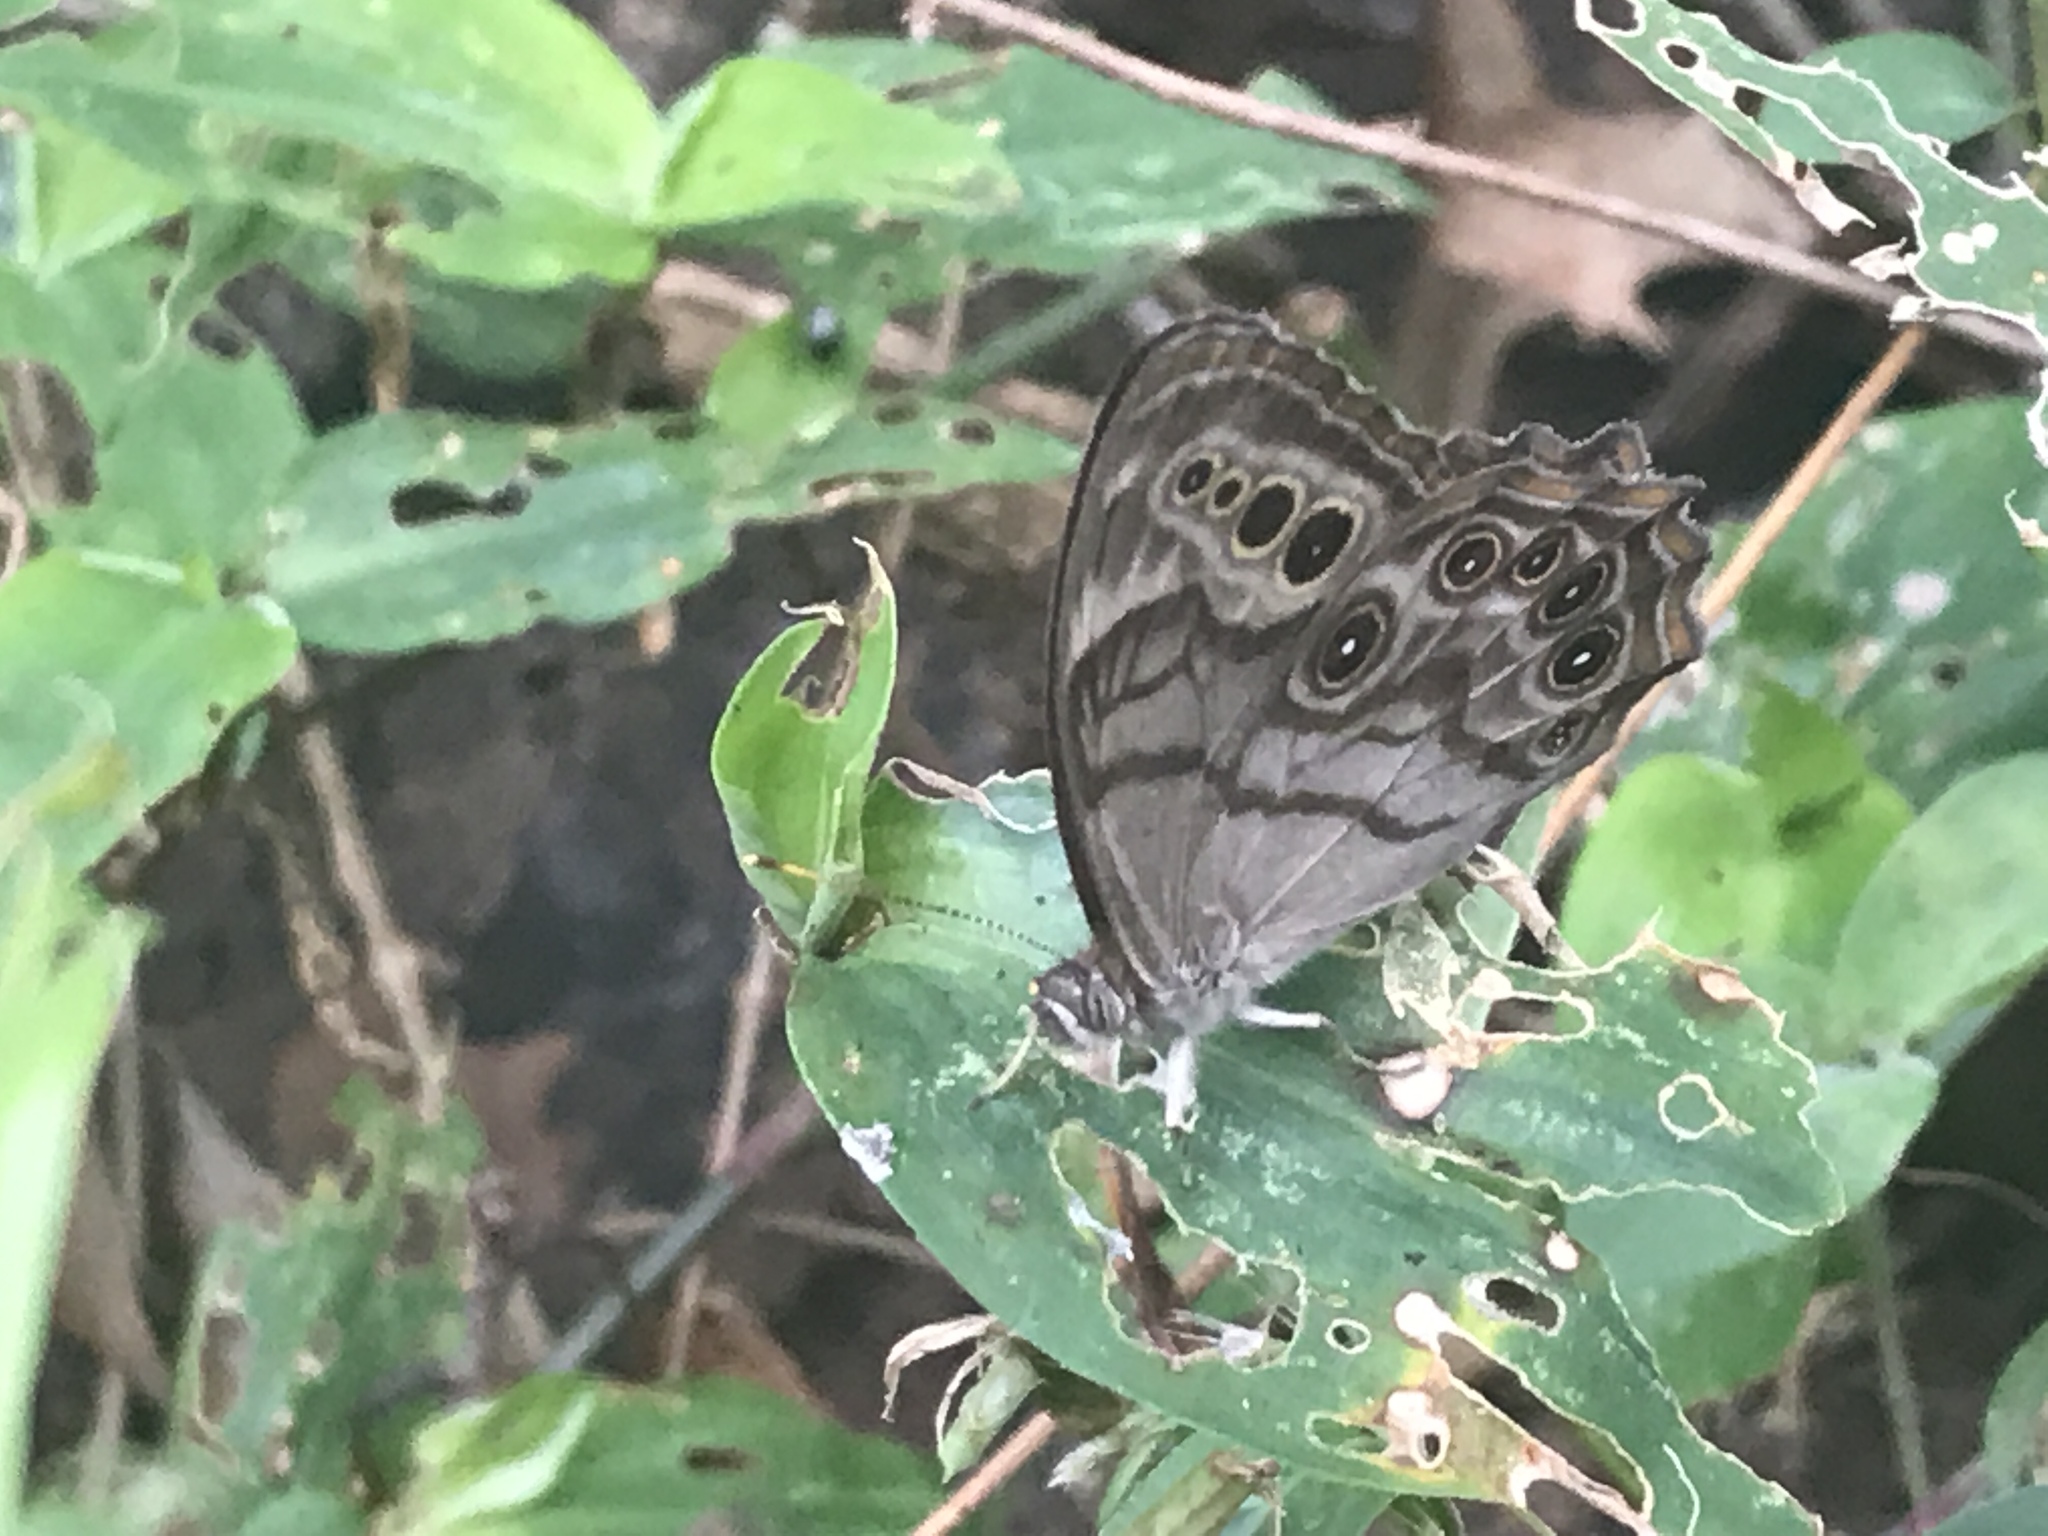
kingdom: Animalia
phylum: Arthropoda
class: Insecta
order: Lepidoptera
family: Nymphalidae
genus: Lethe
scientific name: Lethe anthedon
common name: Northern pearly-eye
